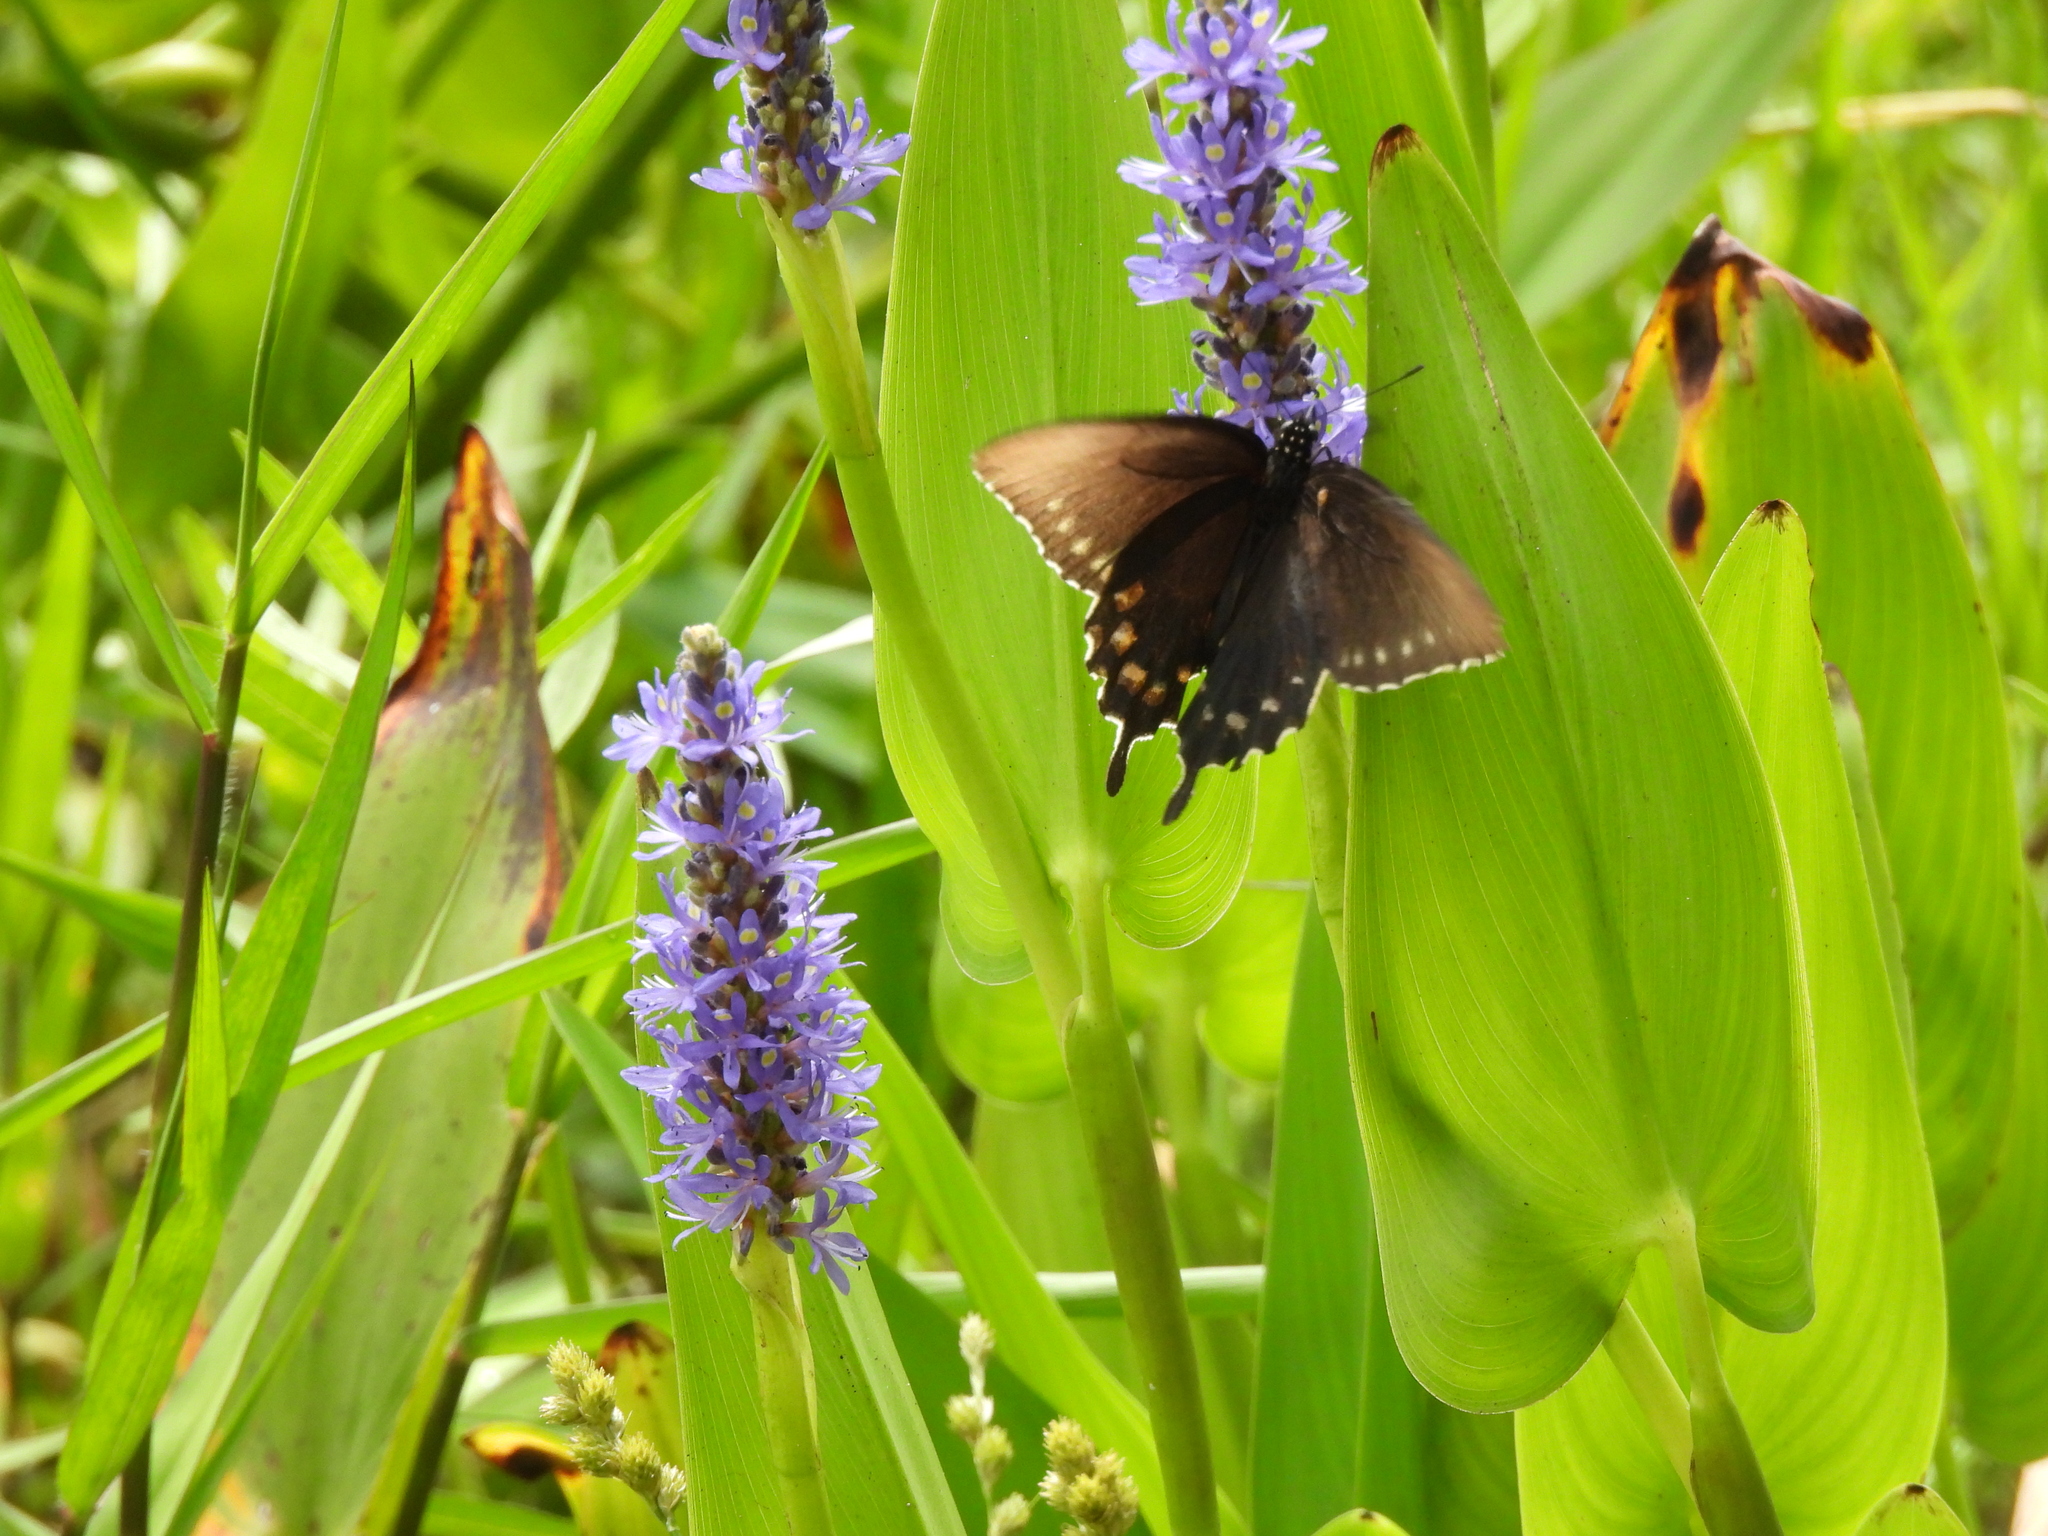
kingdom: Animalia
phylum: Arthropoda
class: Insecta
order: Lepidoptera
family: Papilionidae
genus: Battus
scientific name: Battus philenor
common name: Pipevine swallowtail
